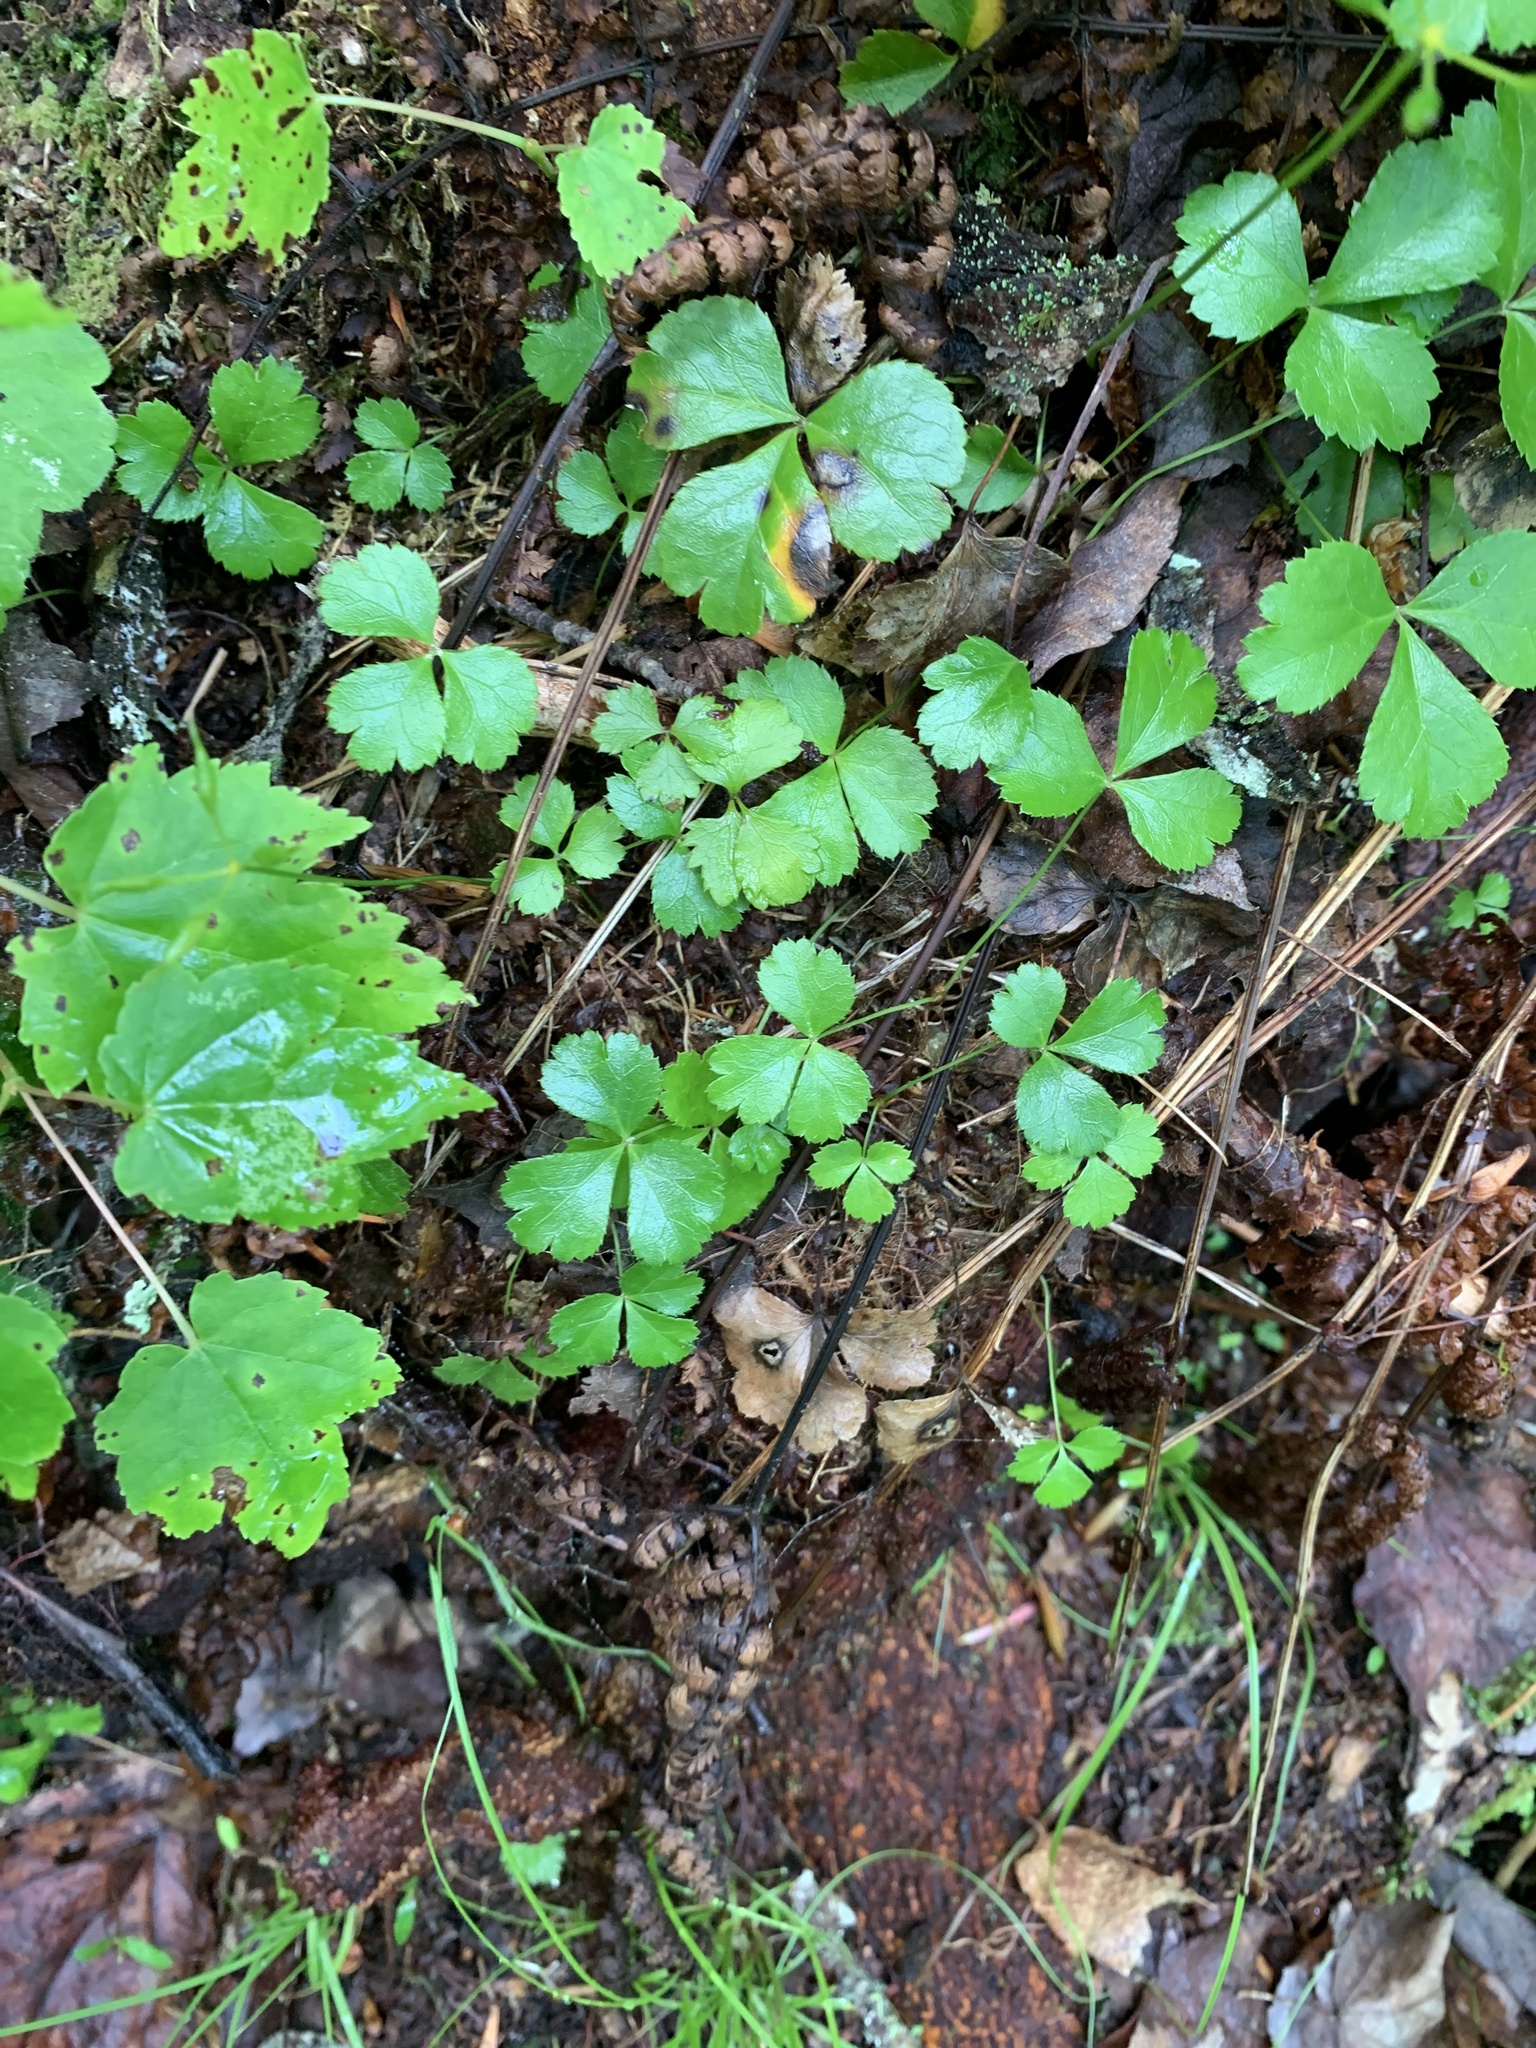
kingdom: Plantae
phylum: Tracheophyta
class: Magnoliopsida
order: Ranunculales
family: Ranunculaceae
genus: Coptis
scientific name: Coptis trifolia
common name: Canker-root
